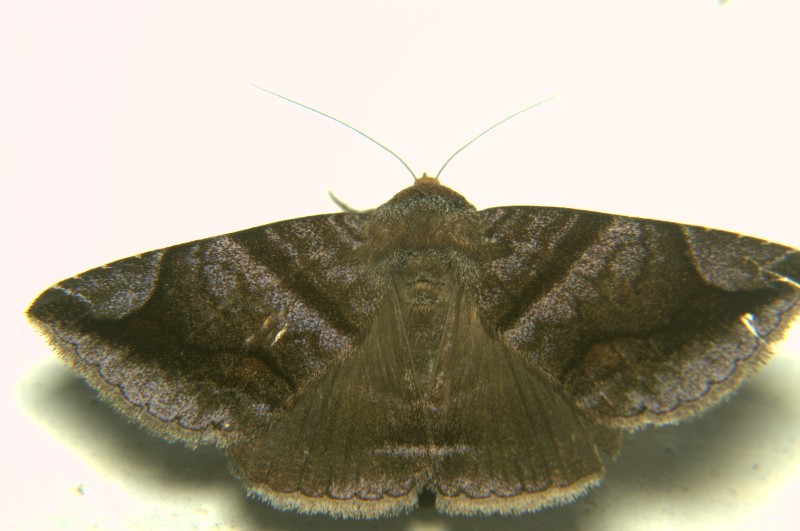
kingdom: Animalia
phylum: Arthropoda
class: Insecta
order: Lepidoptera
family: Erebidae
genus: Buzara
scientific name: Buzara onelia
